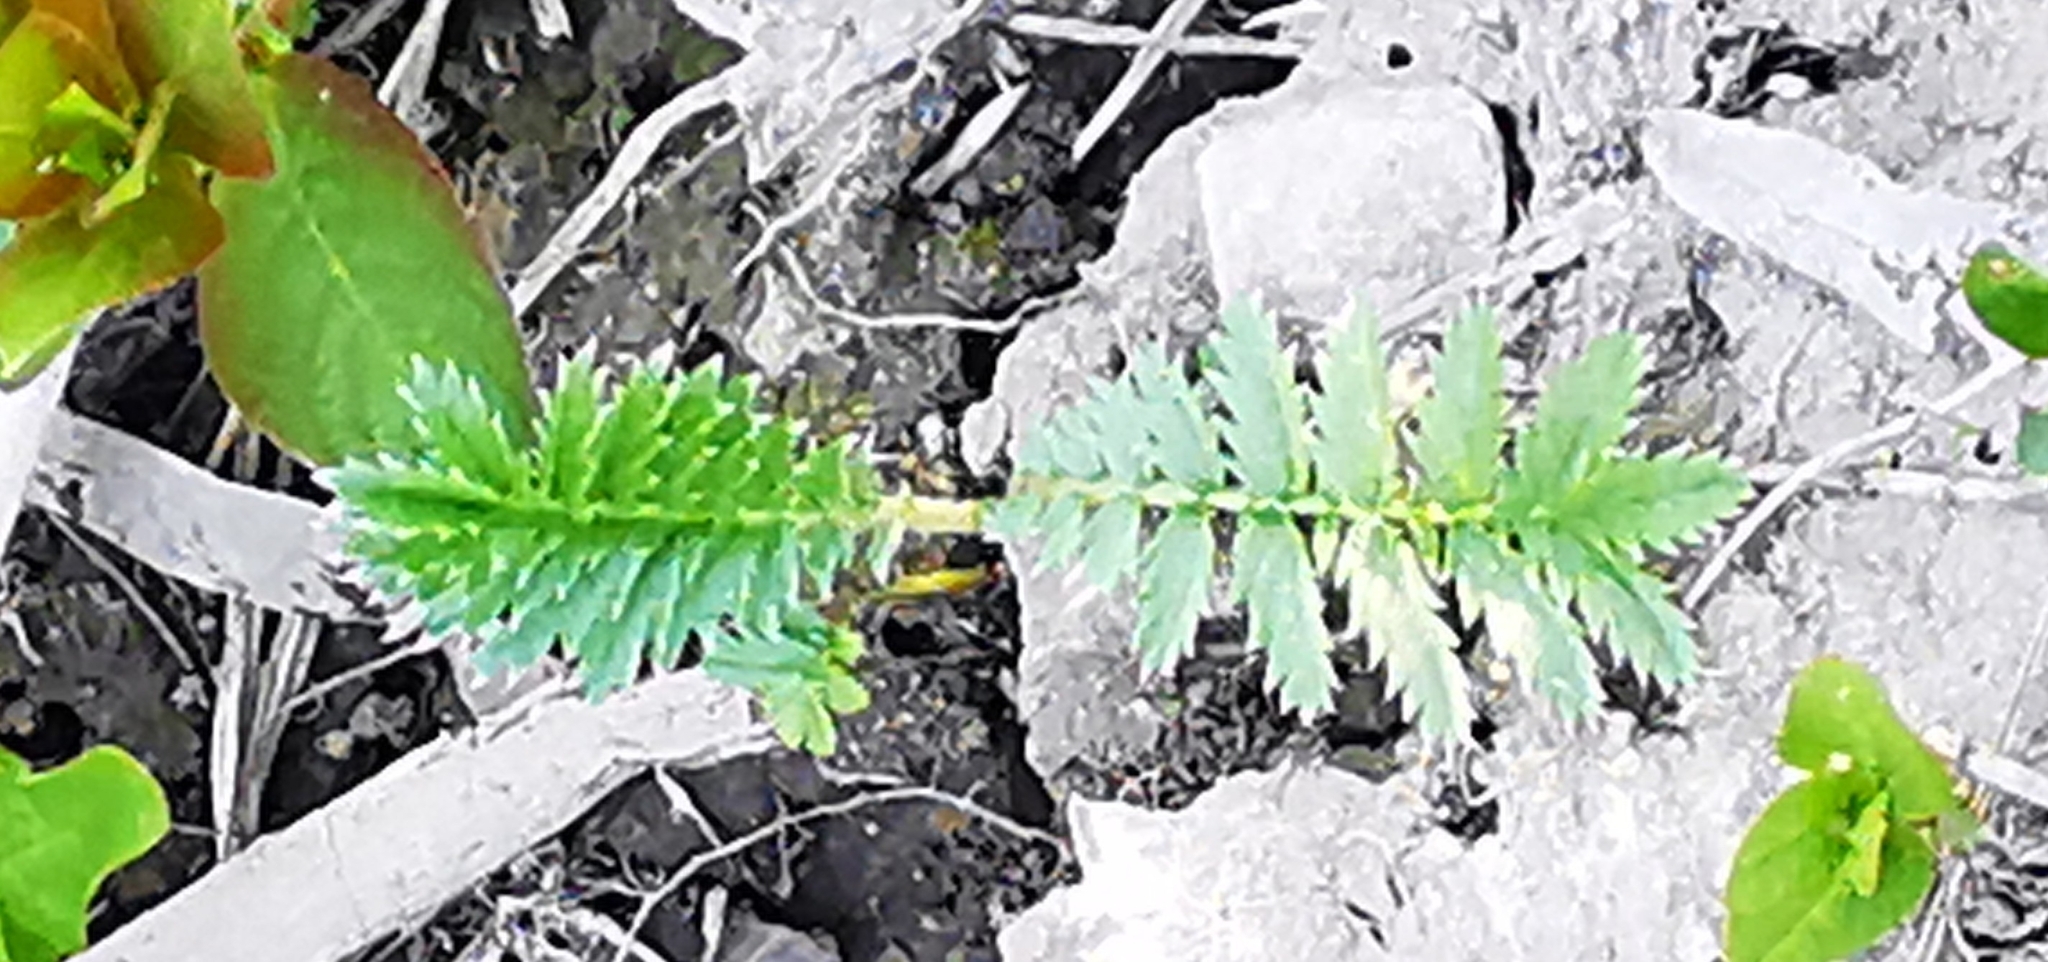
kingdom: Plantae
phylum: Tracheophyta
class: Magnoliopsida
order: Rosales
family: Rosaceae
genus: Argentina
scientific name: Argentina anserina
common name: Common silverweed
